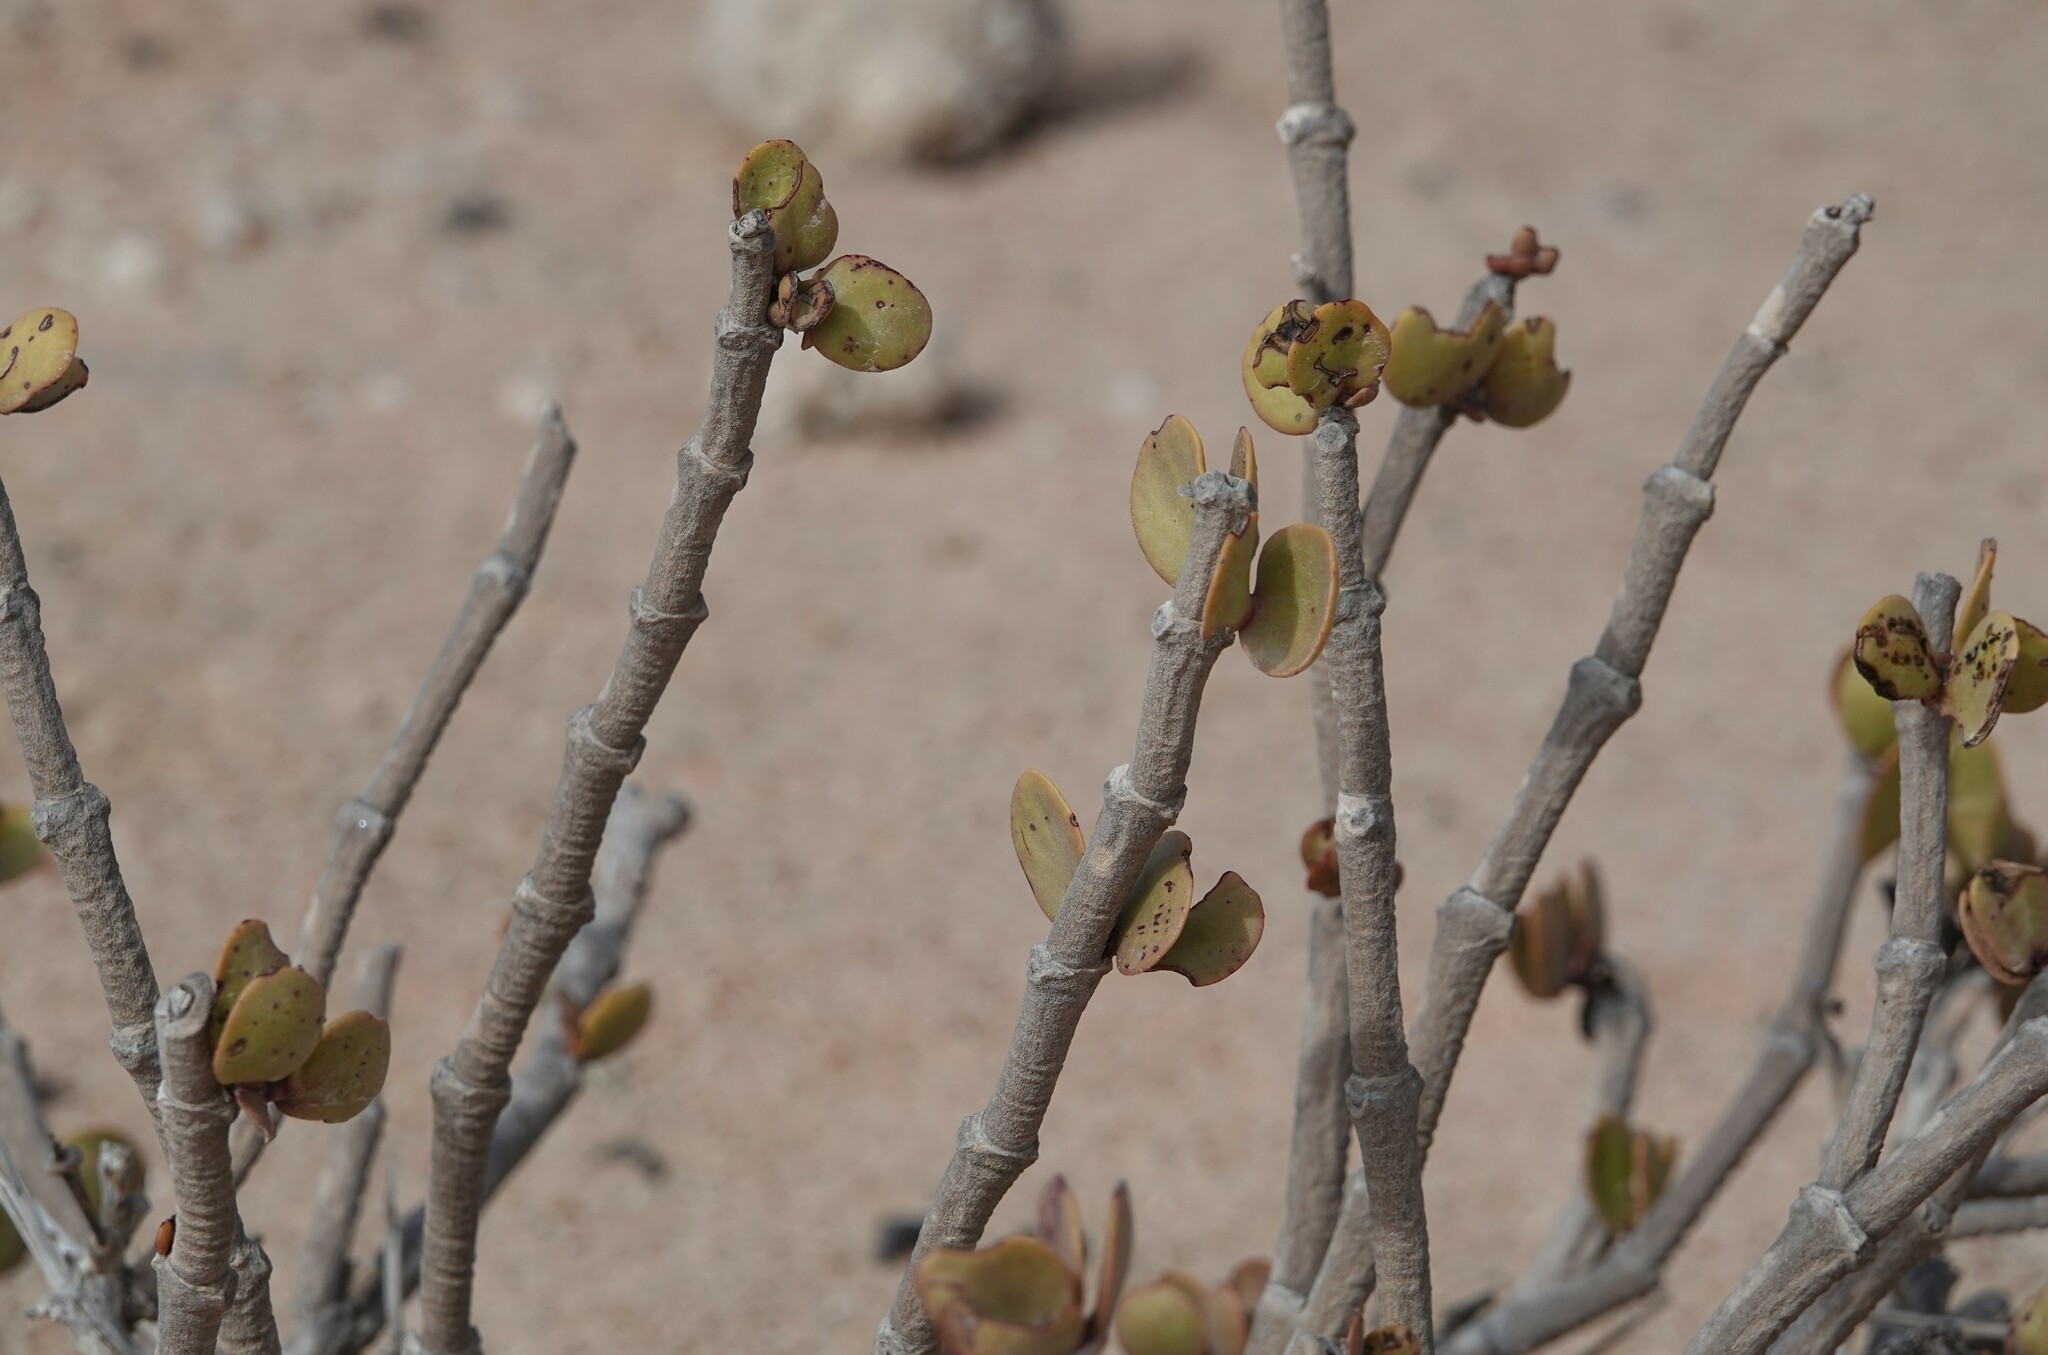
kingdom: Plantae
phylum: Tracheophyta
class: Magnoliopsida
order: Zygophyllales
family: Zygophyllaceae
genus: Tetraena
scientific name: Tetraena stapfii
